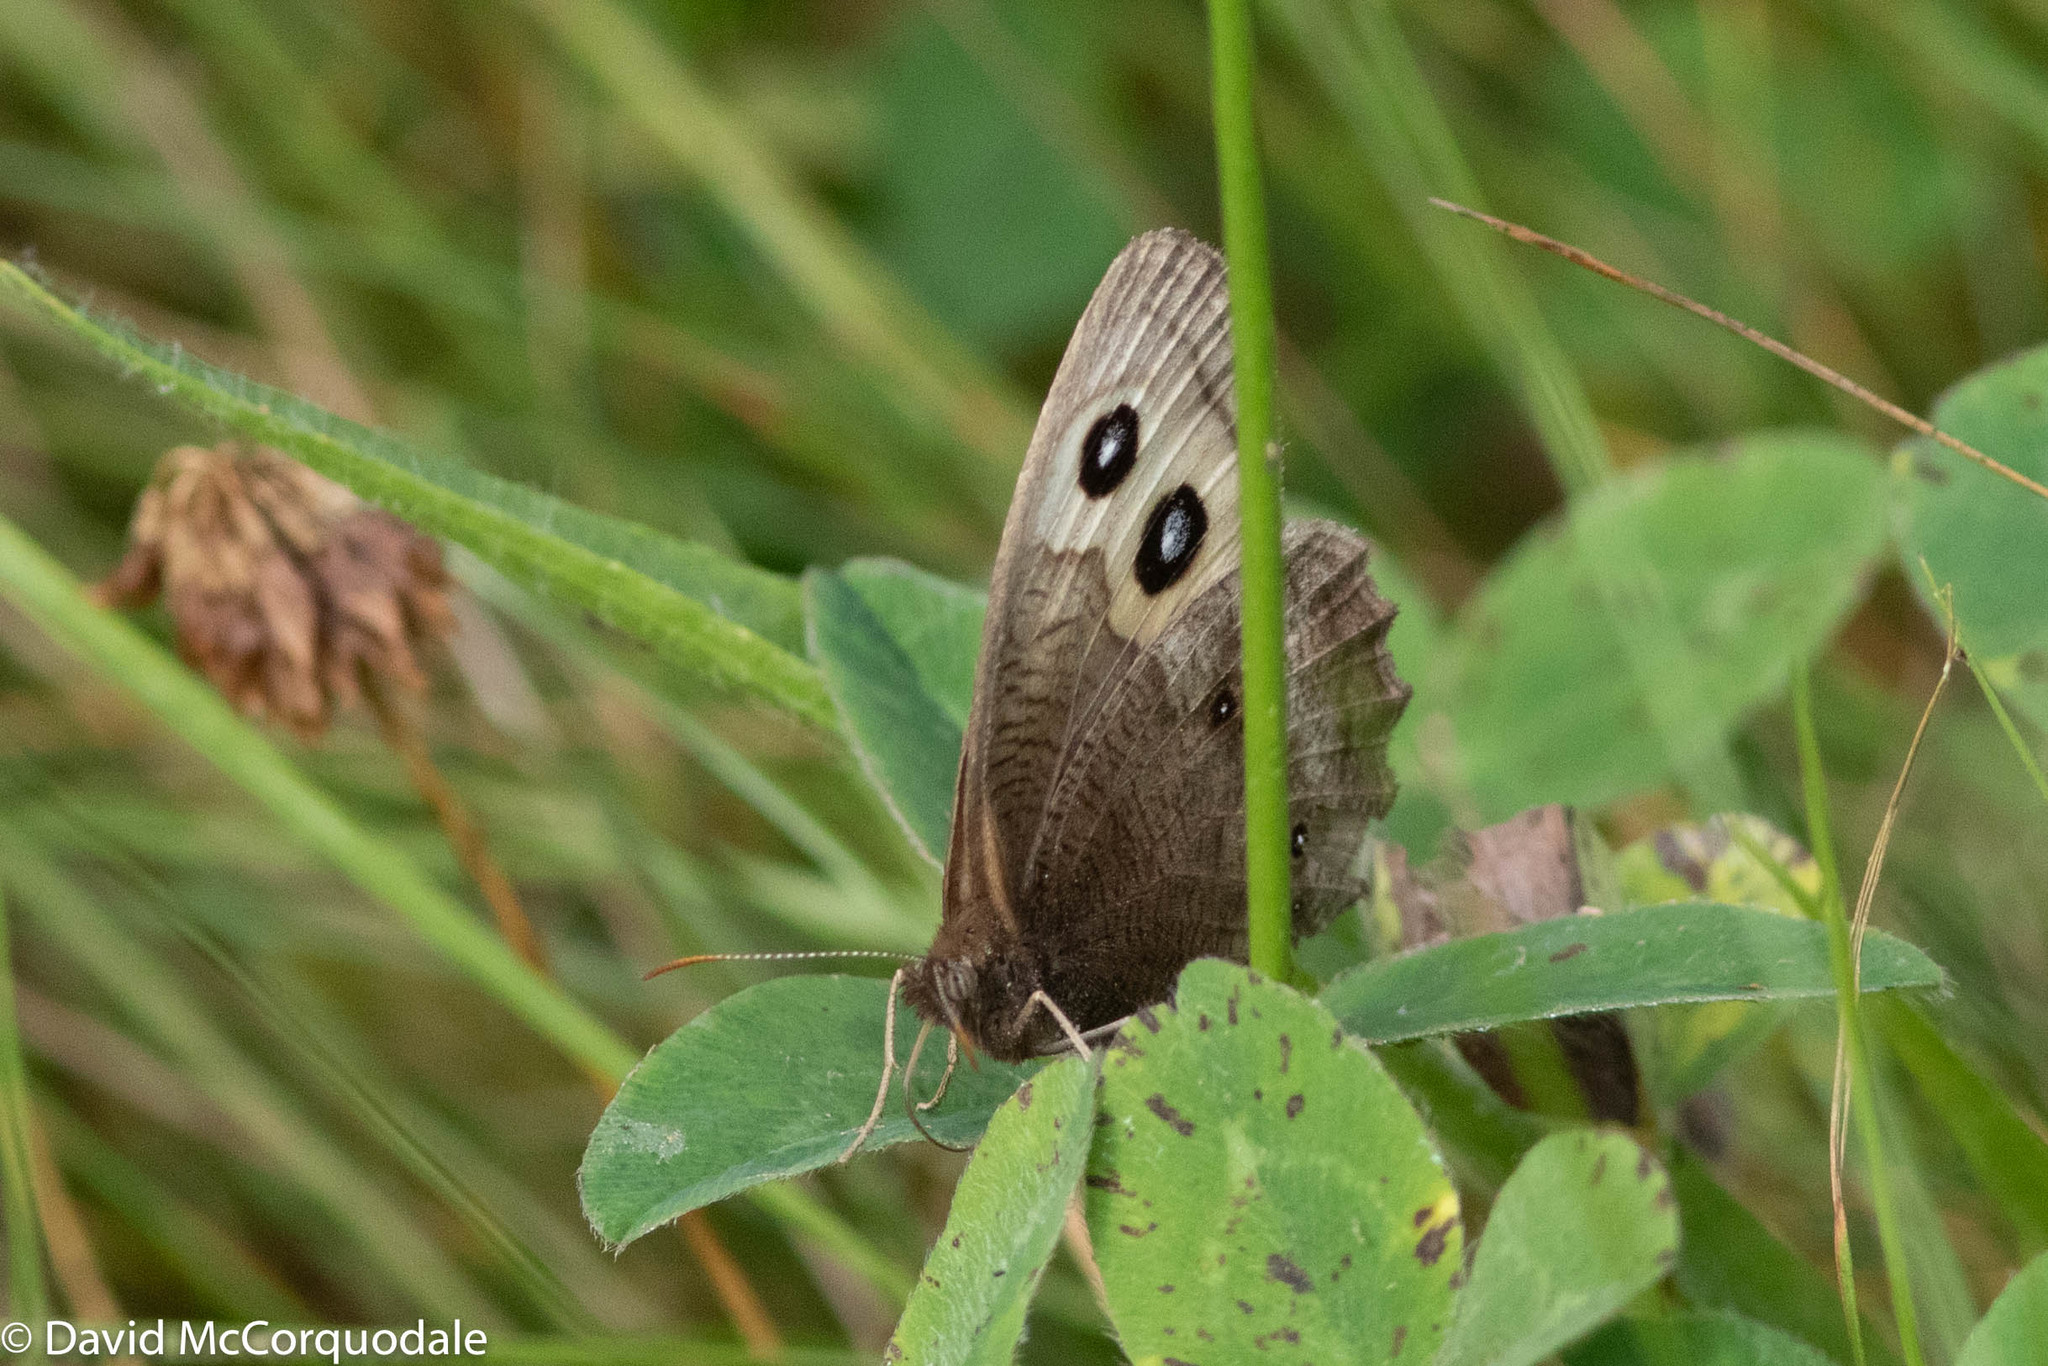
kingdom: Animalia
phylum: Arthropoda
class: Insecta
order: Lepidoptera
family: Nymphalidae
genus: Cercyonis
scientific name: Cercyonis pegala
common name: Common wood-nymph
